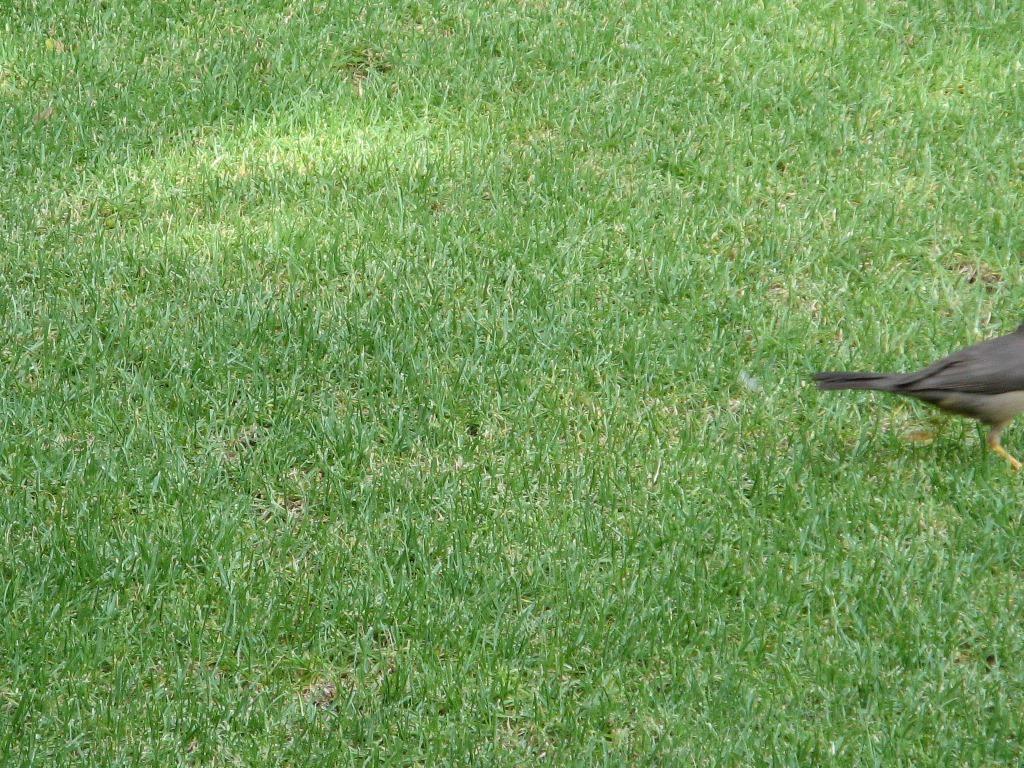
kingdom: Animalia
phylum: Chordata
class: Aves
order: Passeriformes
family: Turdidae
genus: Turdus
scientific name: Turdus smithi
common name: Karoo thrush
